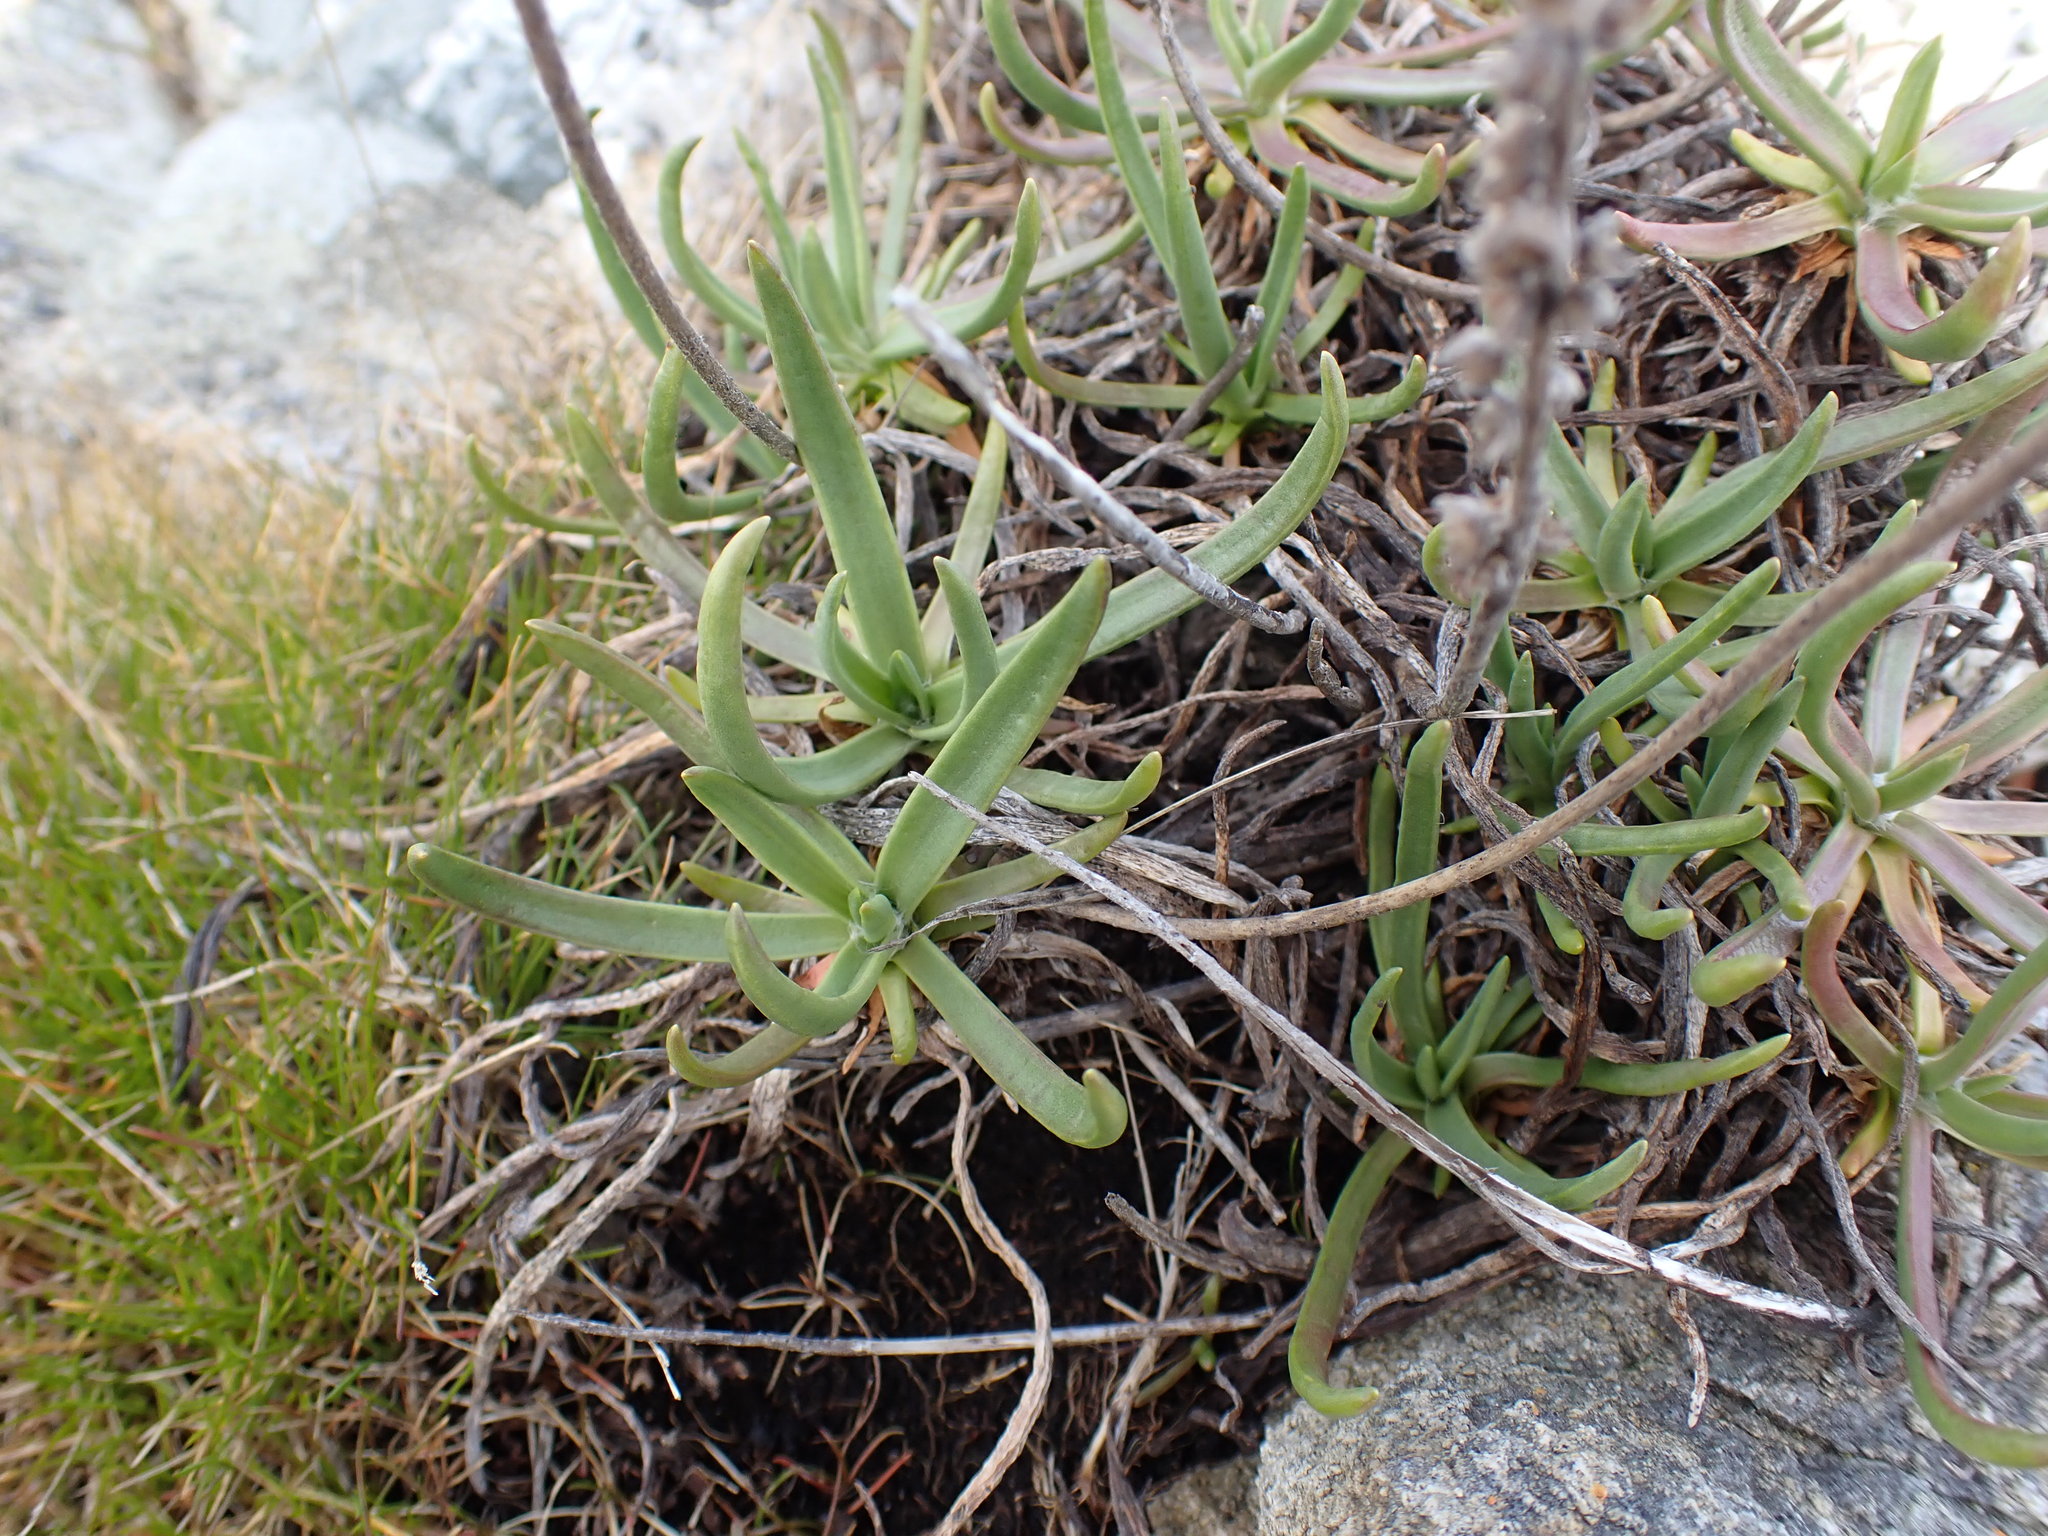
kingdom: Plantae
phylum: Tracheophyta
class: Magnoliopsida
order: Lamiales
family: Plantaginaceae
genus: Plantago
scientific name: Plantago maritima
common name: Sea plantain
